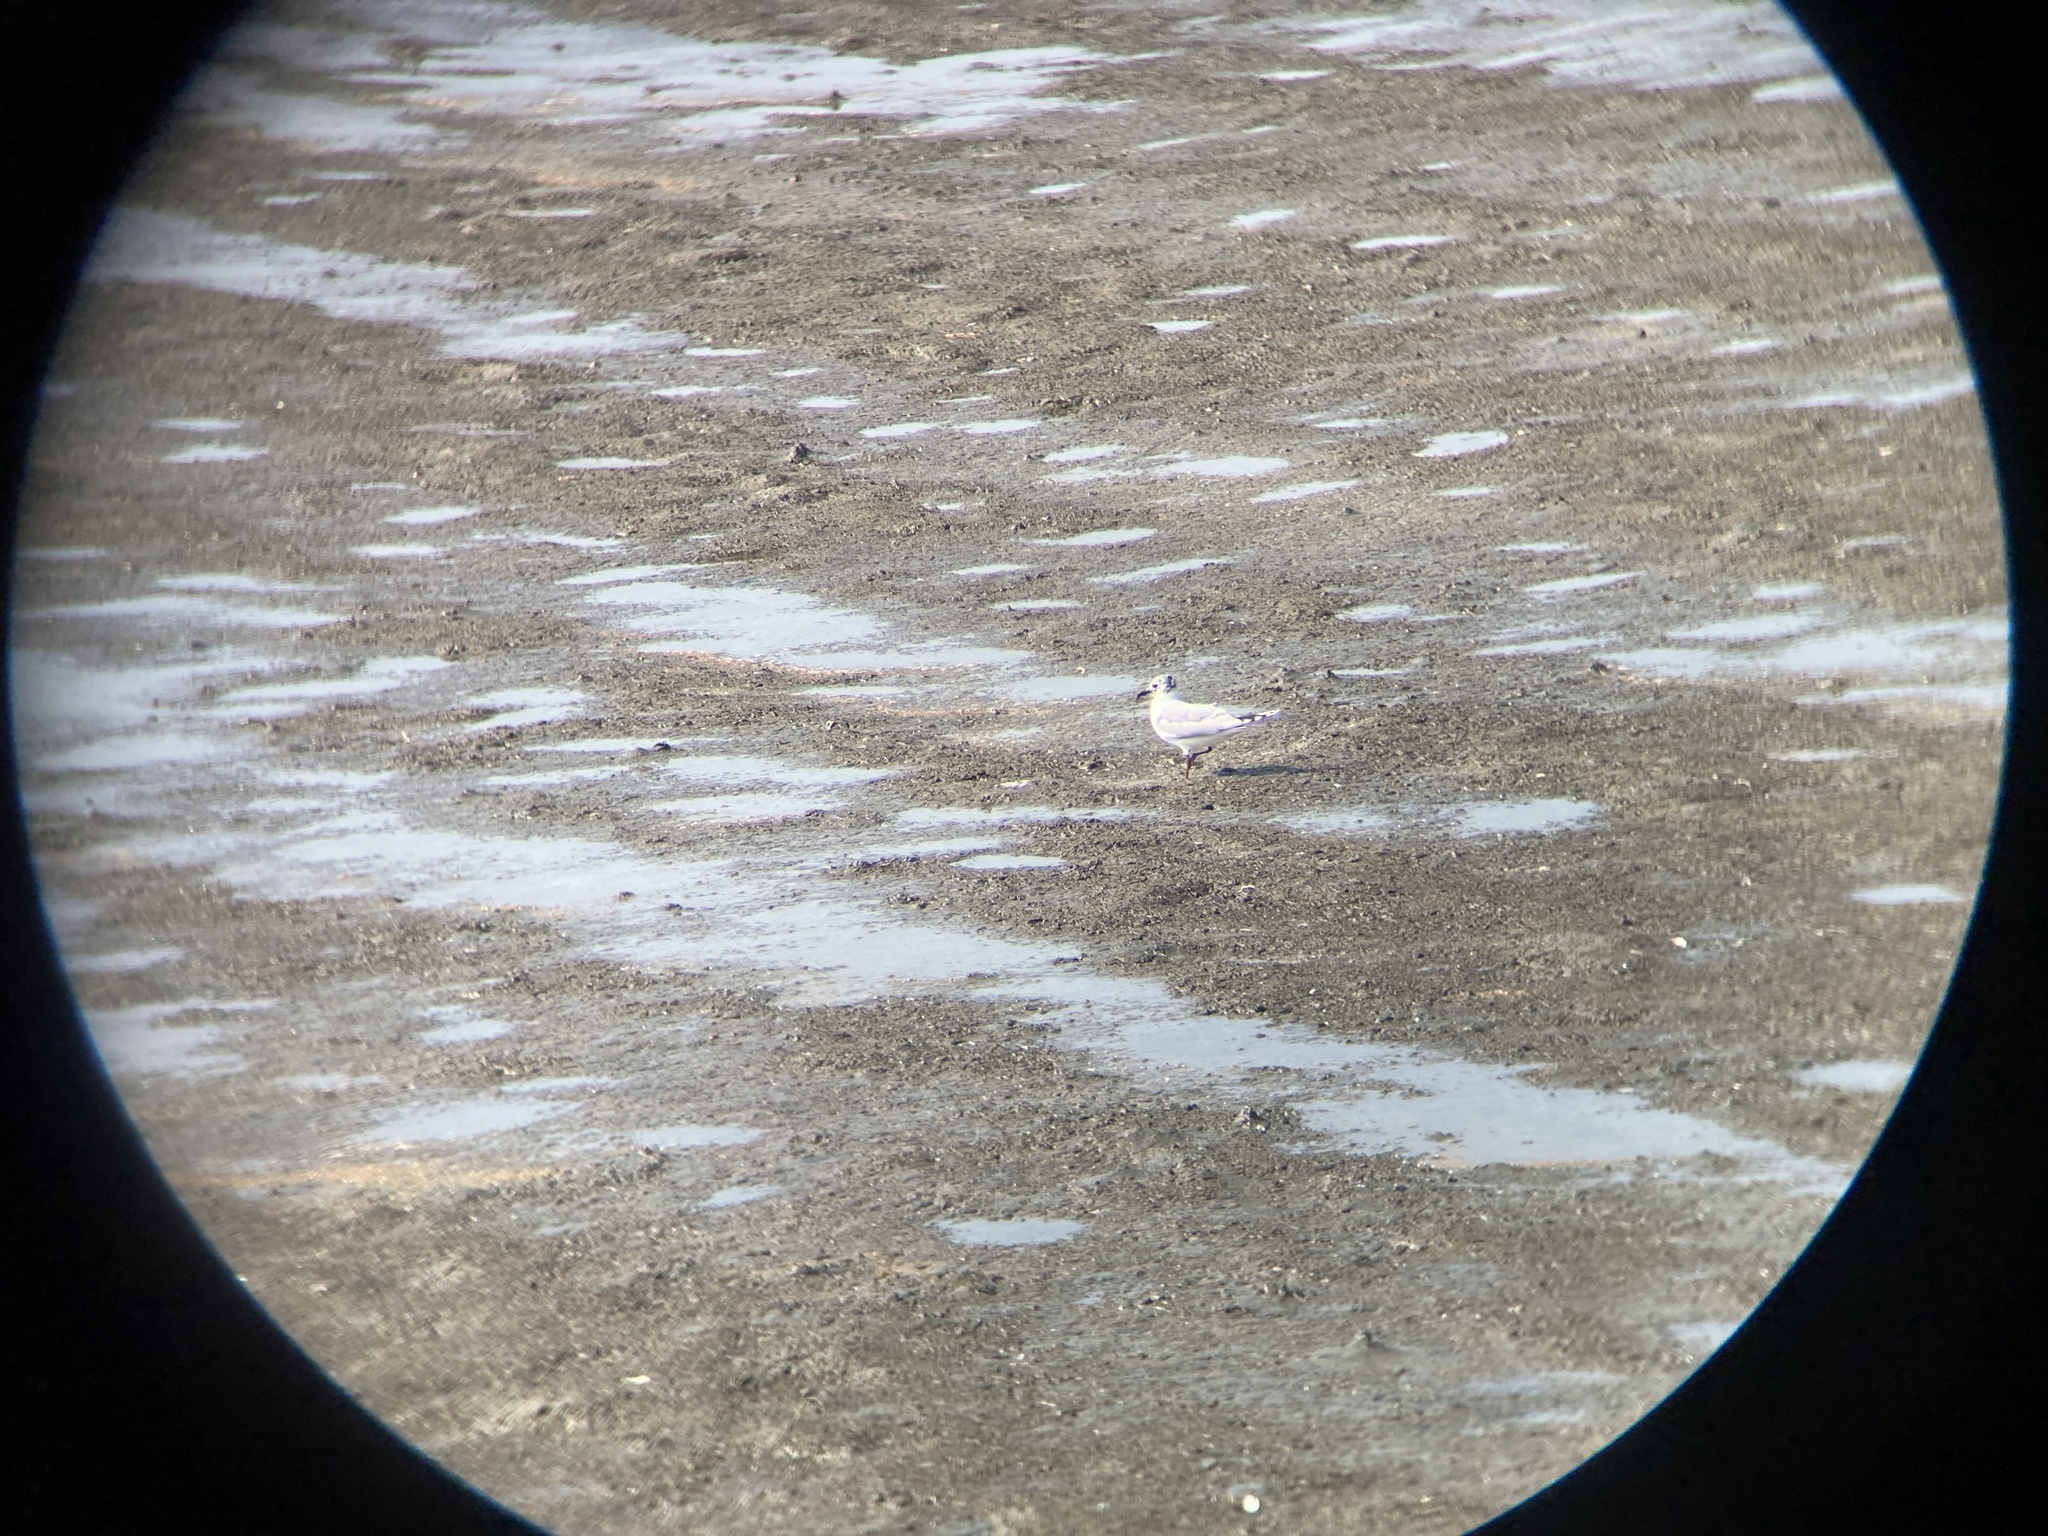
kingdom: Animalia
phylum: Chordata
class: Aves
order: Charadriiformes
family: Laridae
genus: Chroicocephalus
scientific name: Chroicocephalus saundersi
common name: Saunders's gull
